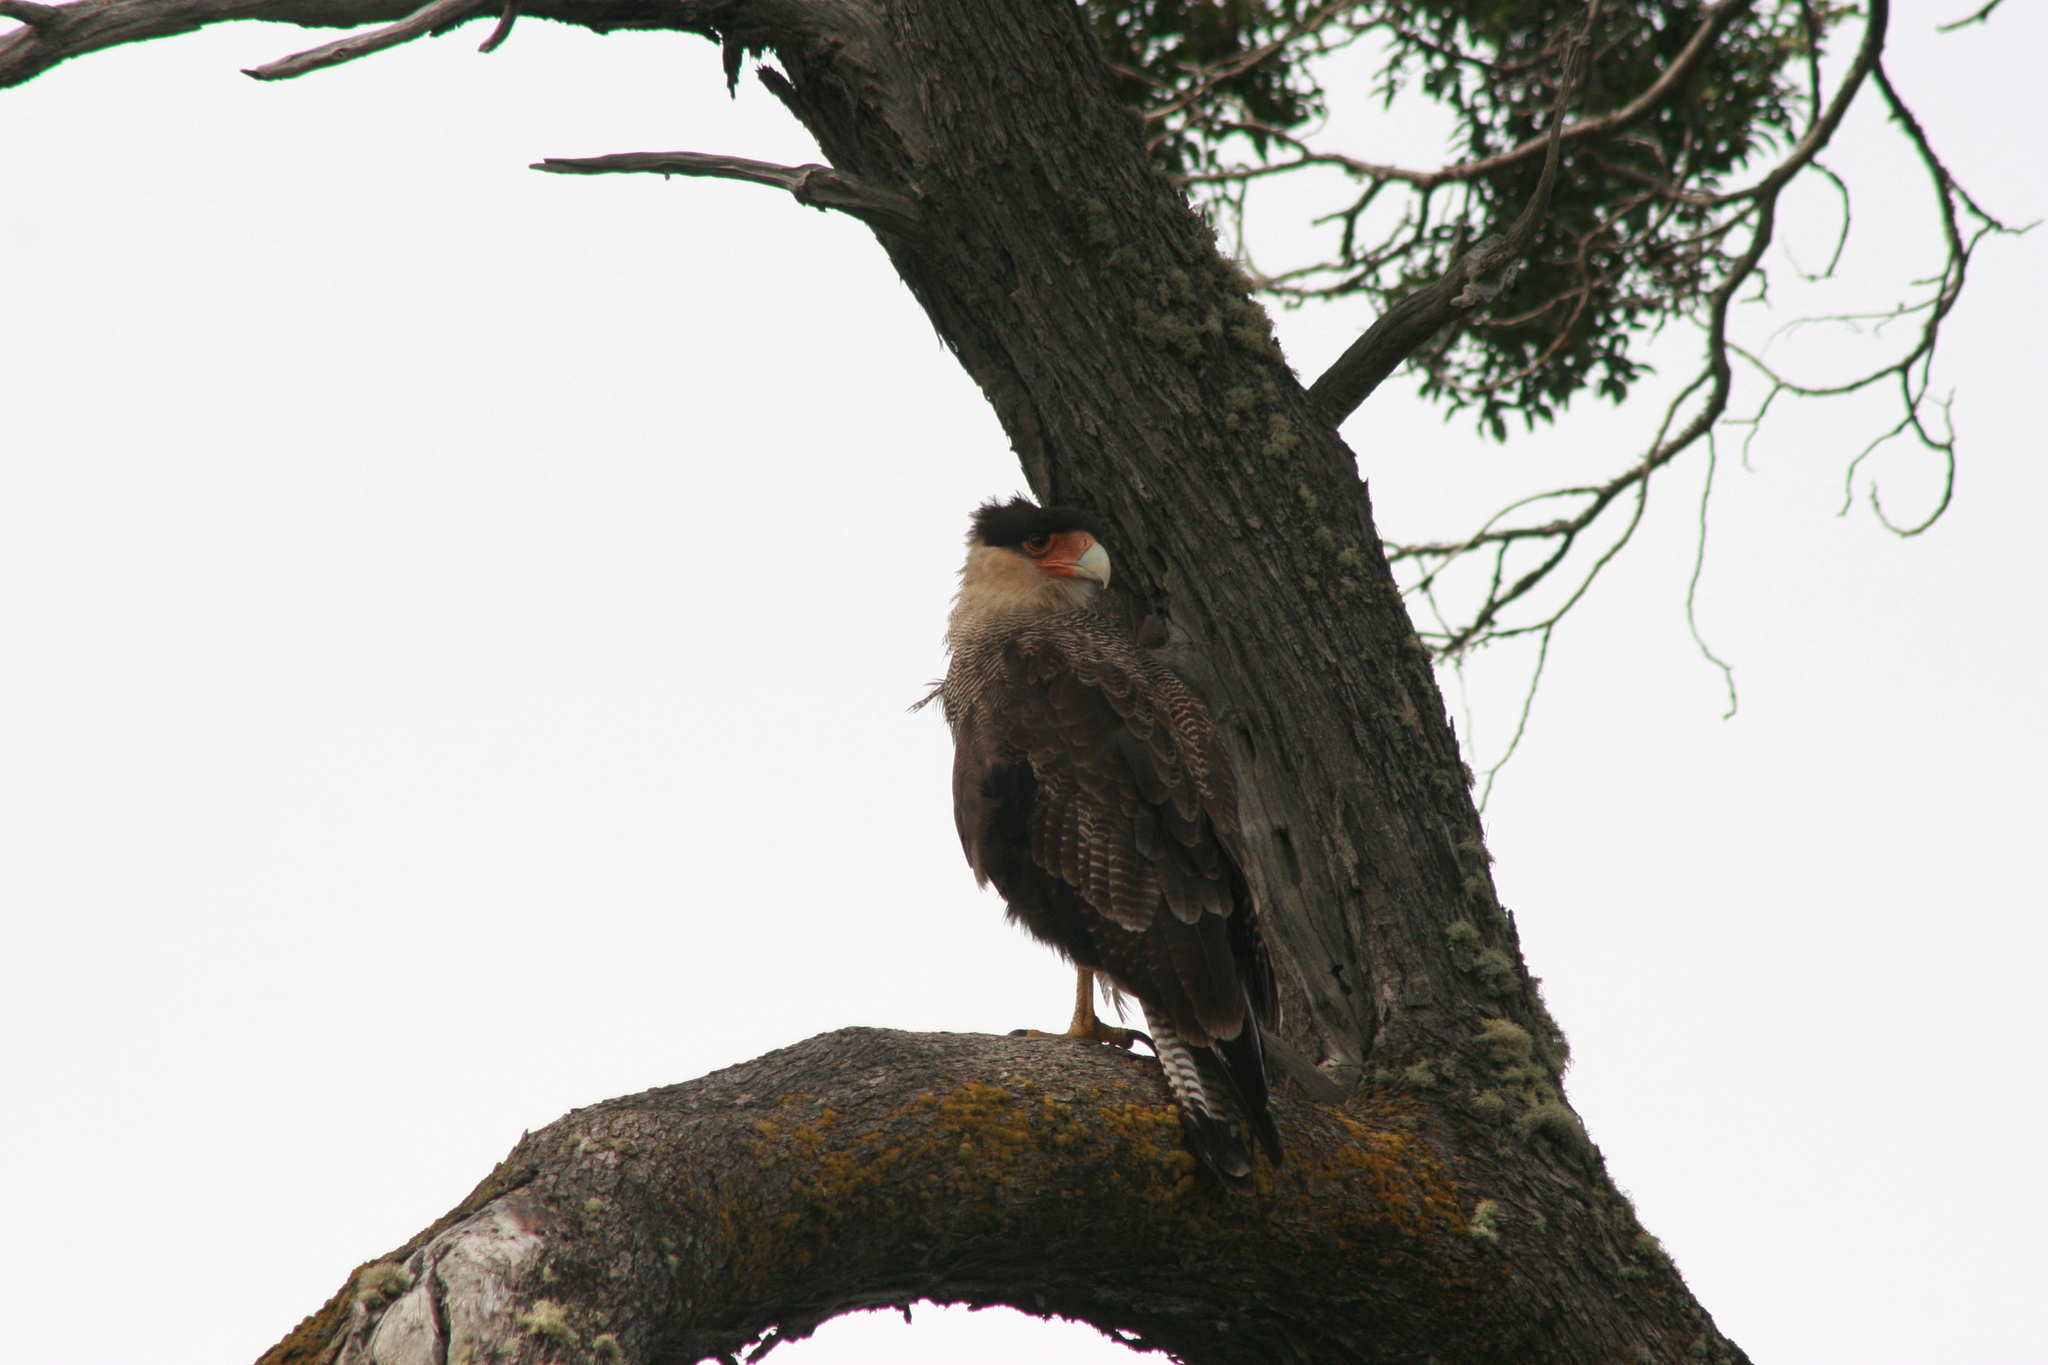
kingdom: Animalia
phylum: Chordata
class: Aves
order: Falconiformes
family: Falconidae
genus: Caracara
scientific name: Caracara plancus
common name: Southern caracara
